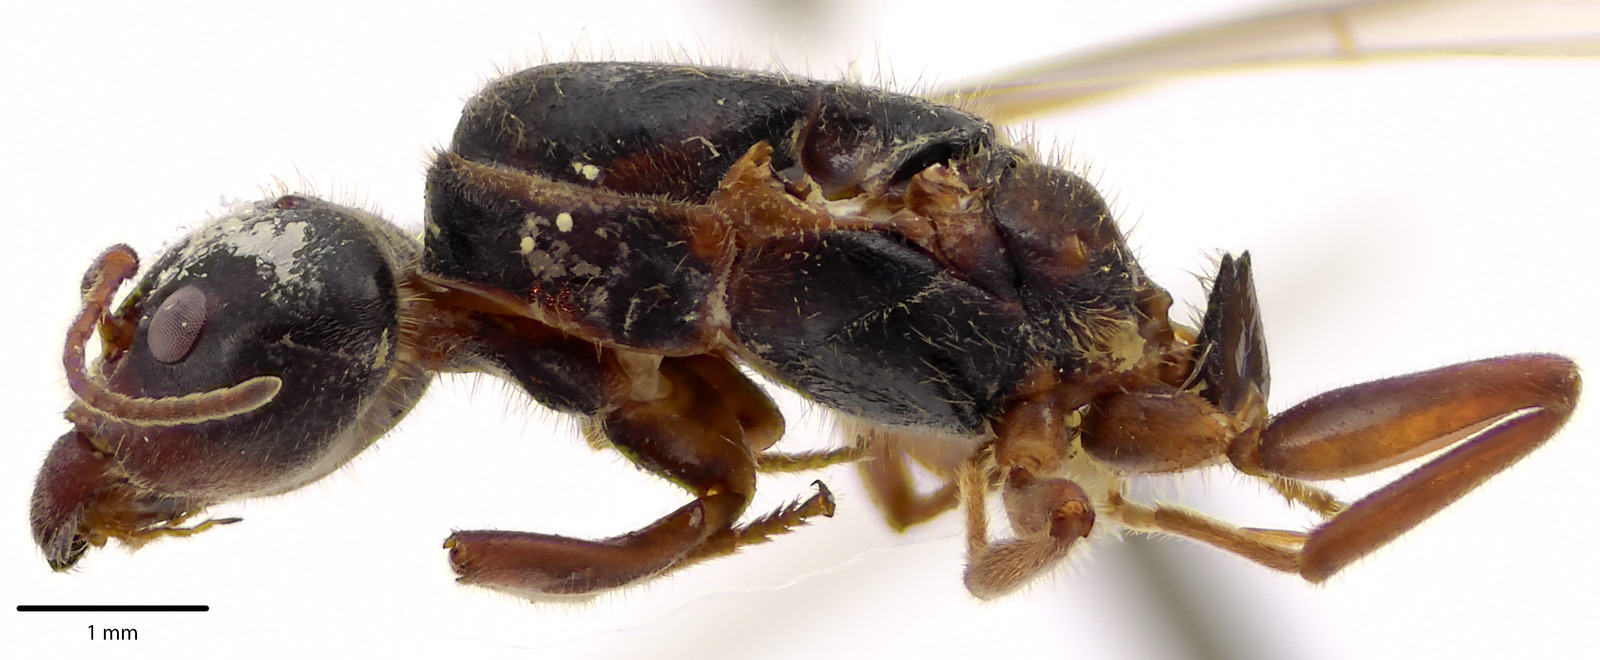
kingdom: Animalia
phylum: Arthropoda
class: Insecta
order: Hymenoptera
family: Formicidae
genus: Liometopum
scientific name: Liometopum occidentale
